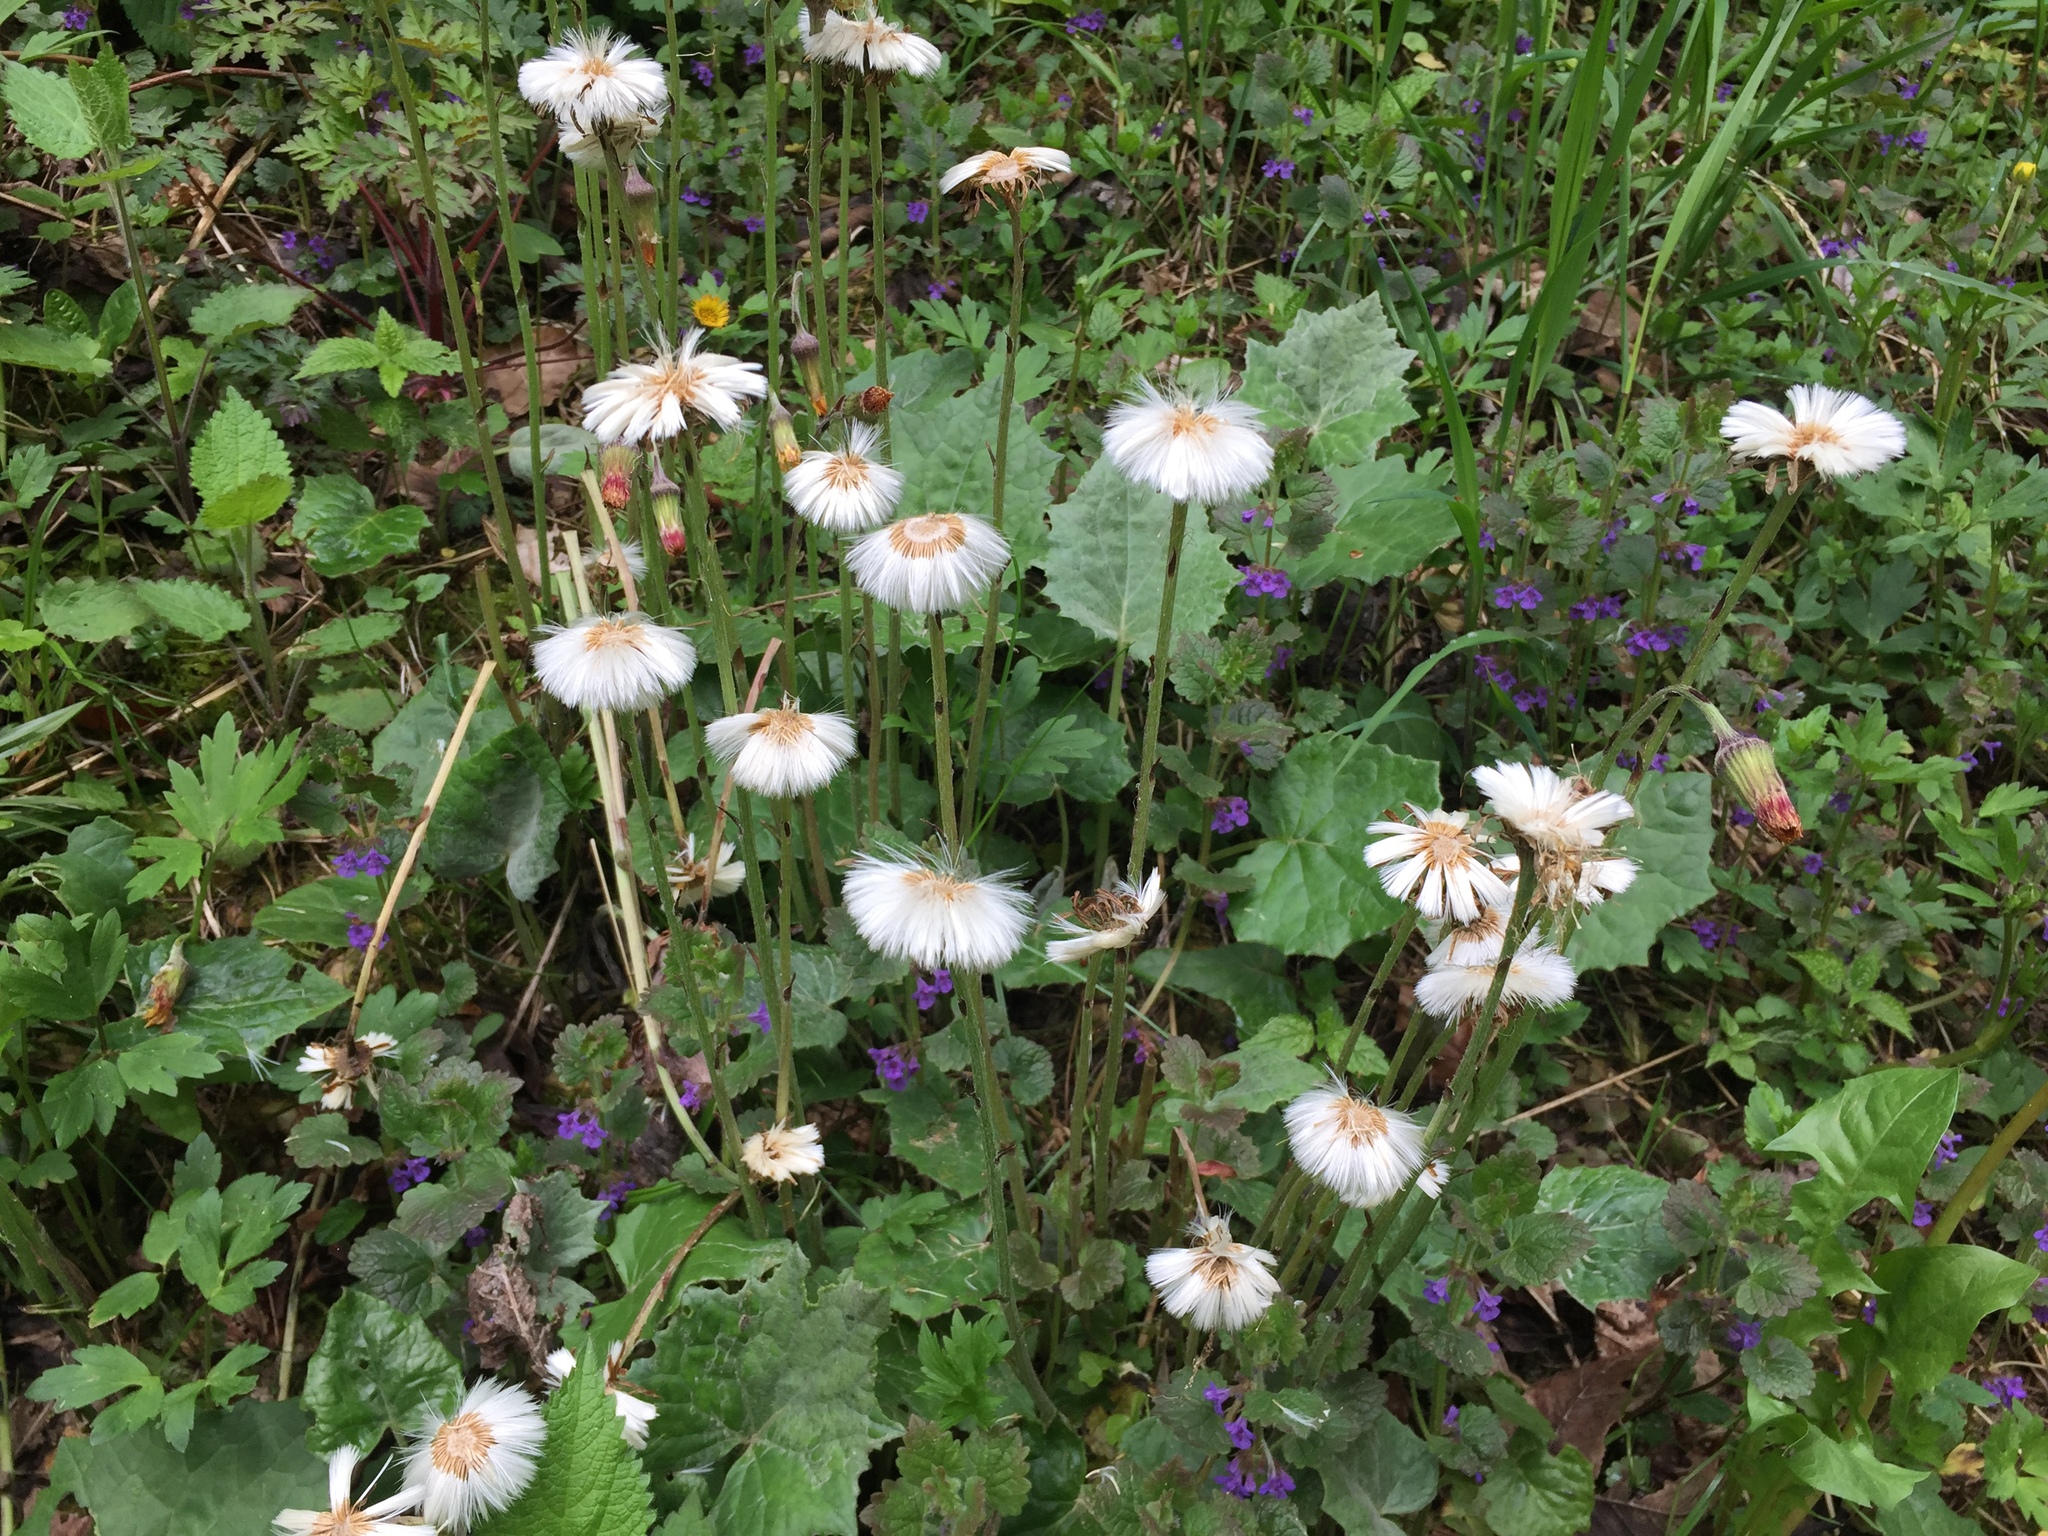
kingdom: Plantae
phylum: Tracheophyta
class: Magnoliopsida
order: Asterales
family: Asteraceae
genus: Tussilago
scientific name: Tussilago farfara
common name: Coltsfoot
